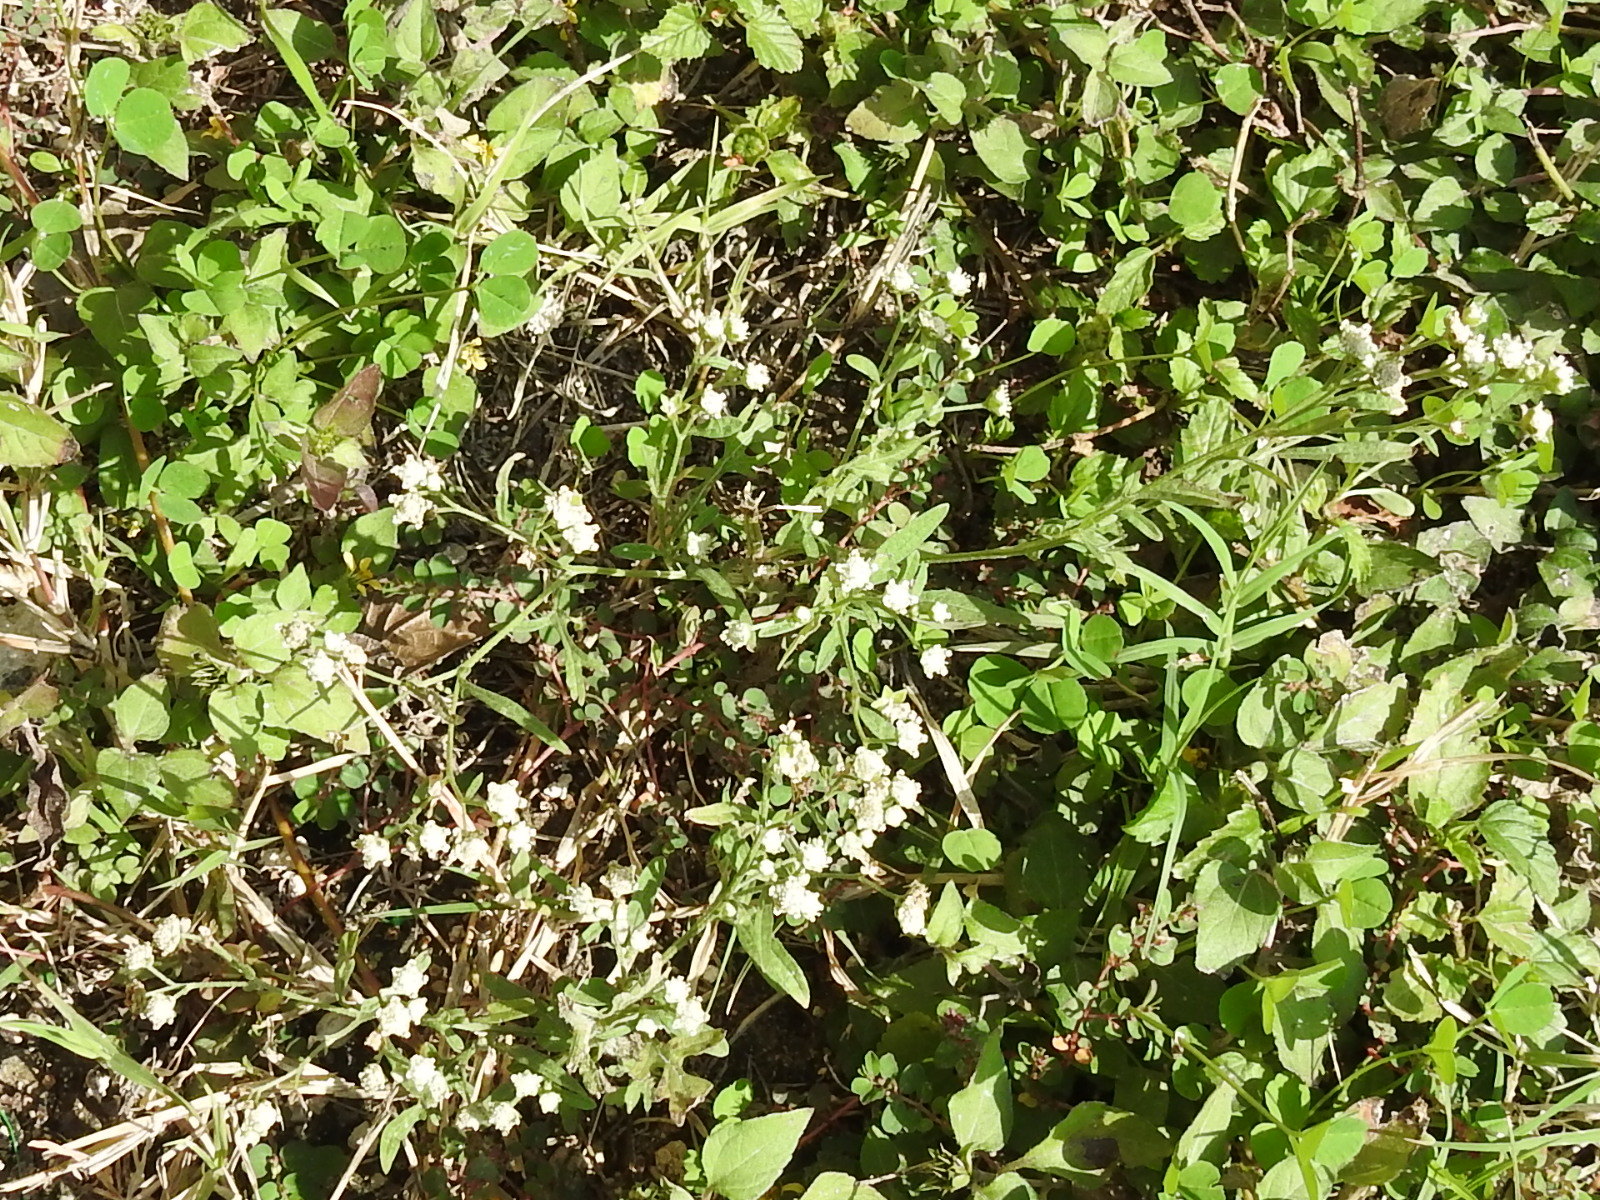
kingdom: Plantae
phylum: Tracheophyta
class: Magnoliopsida
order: Asterales
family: Asteraceae
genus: Parthenium
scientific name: Parthenium hysterophorus
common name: Santa maria feverfew
